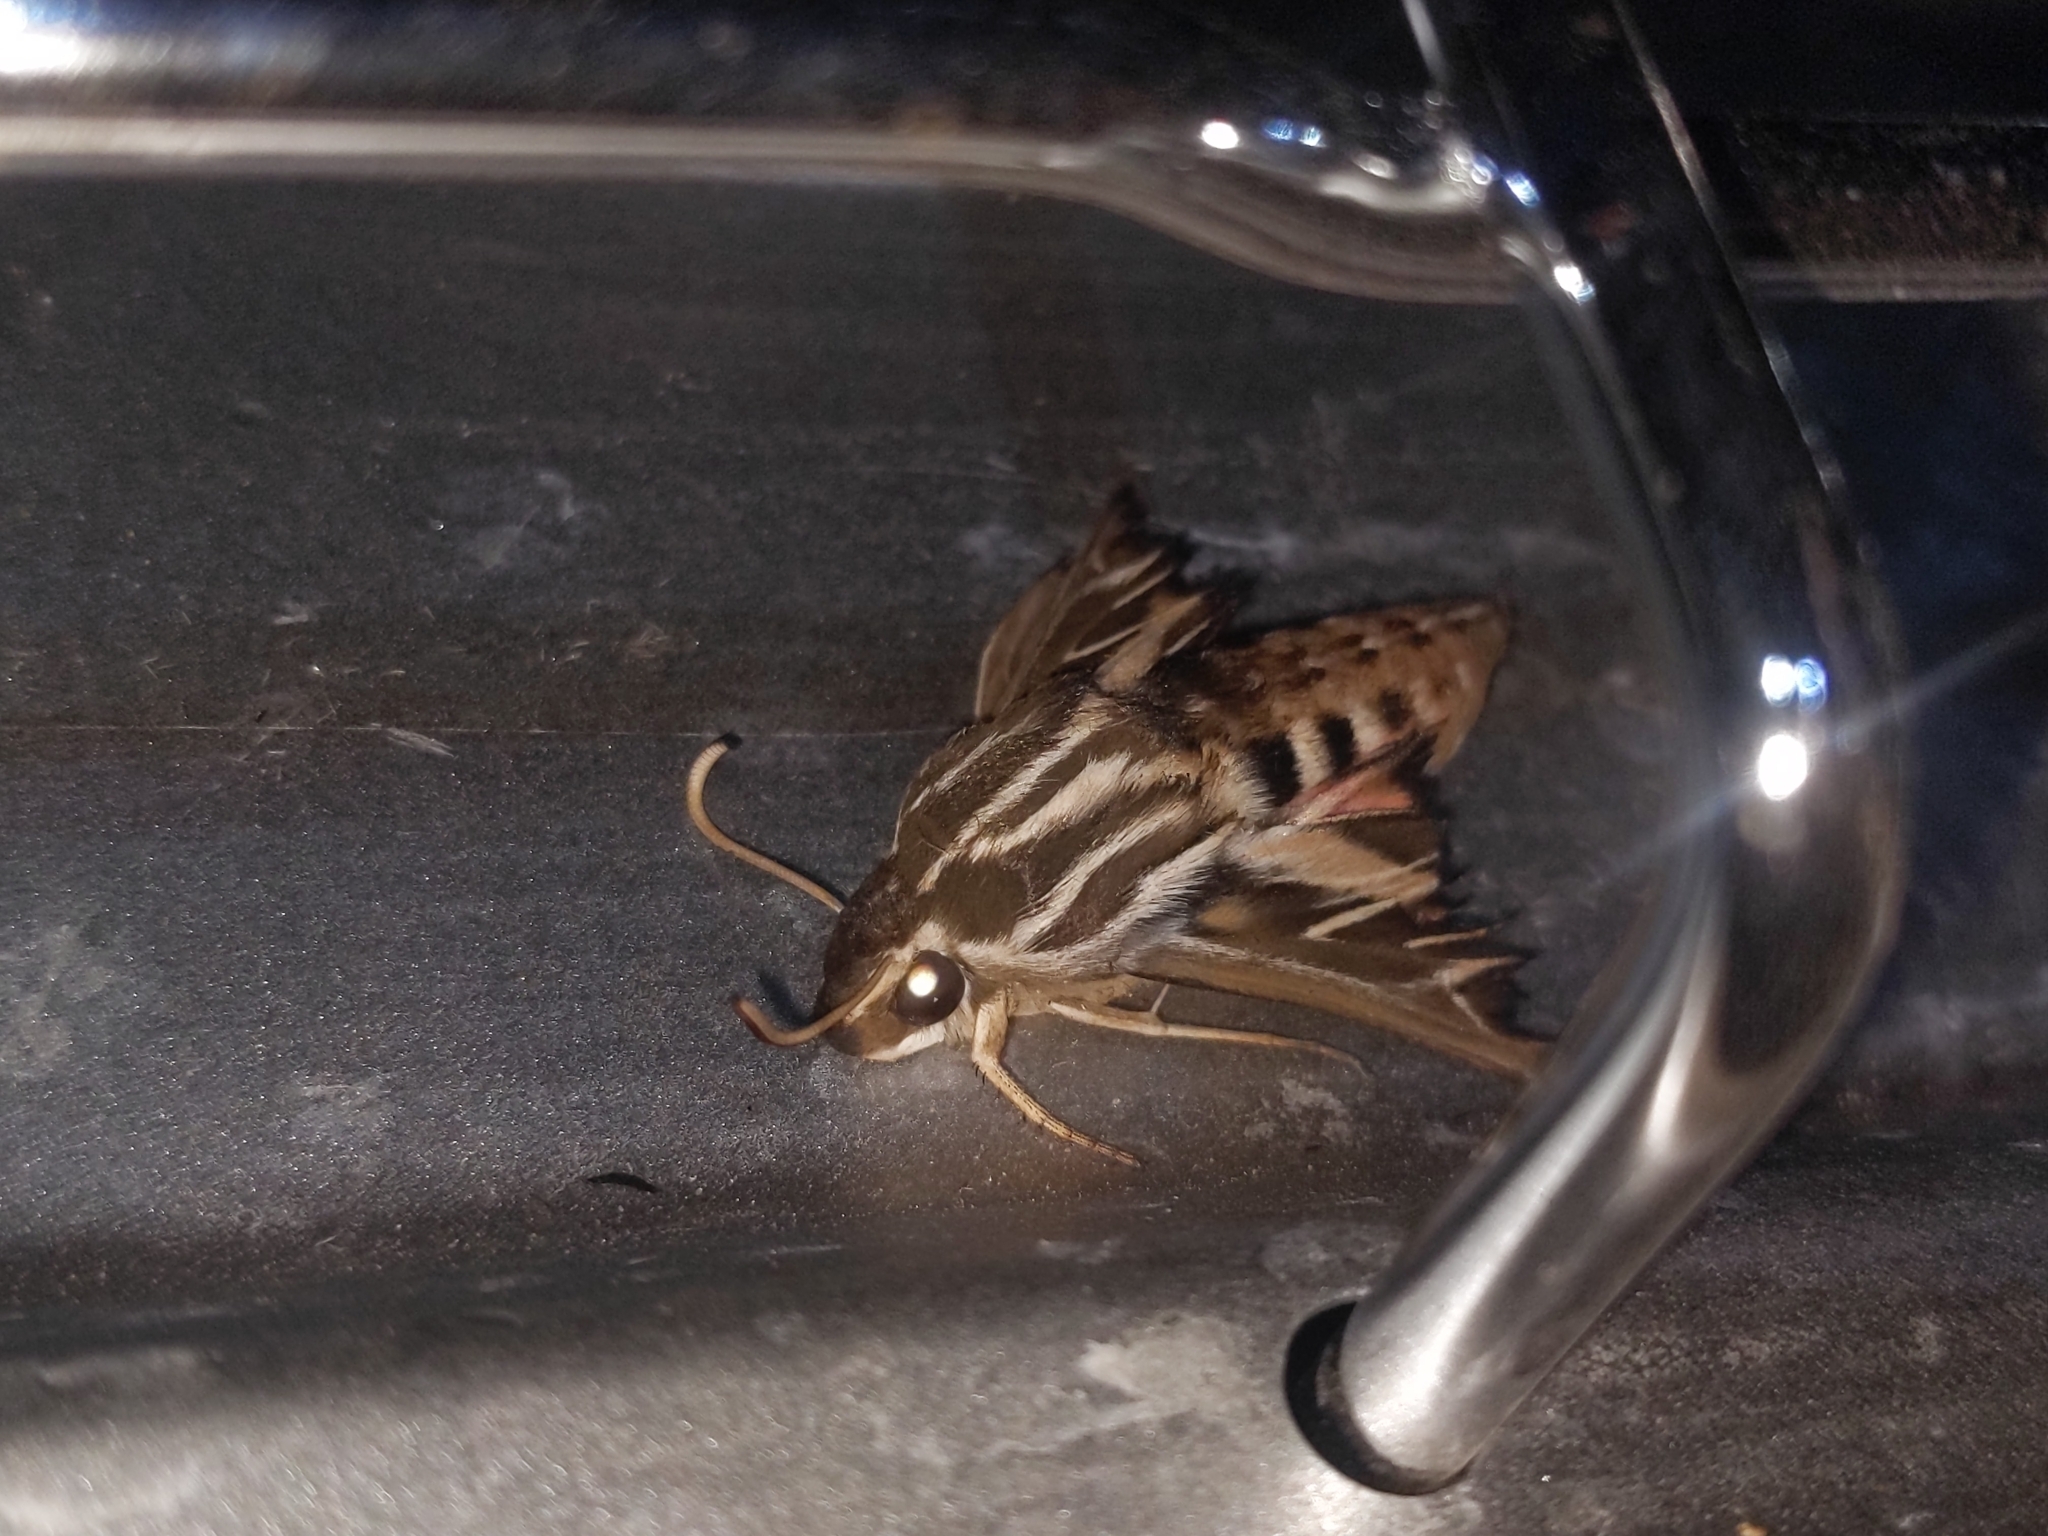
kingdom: Animalia
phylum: Arthropoda
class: Insecta
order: Lepidoptera
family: Sphingidae
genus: Hyles
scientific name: Hyles lineata
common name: White-lined sphinx
